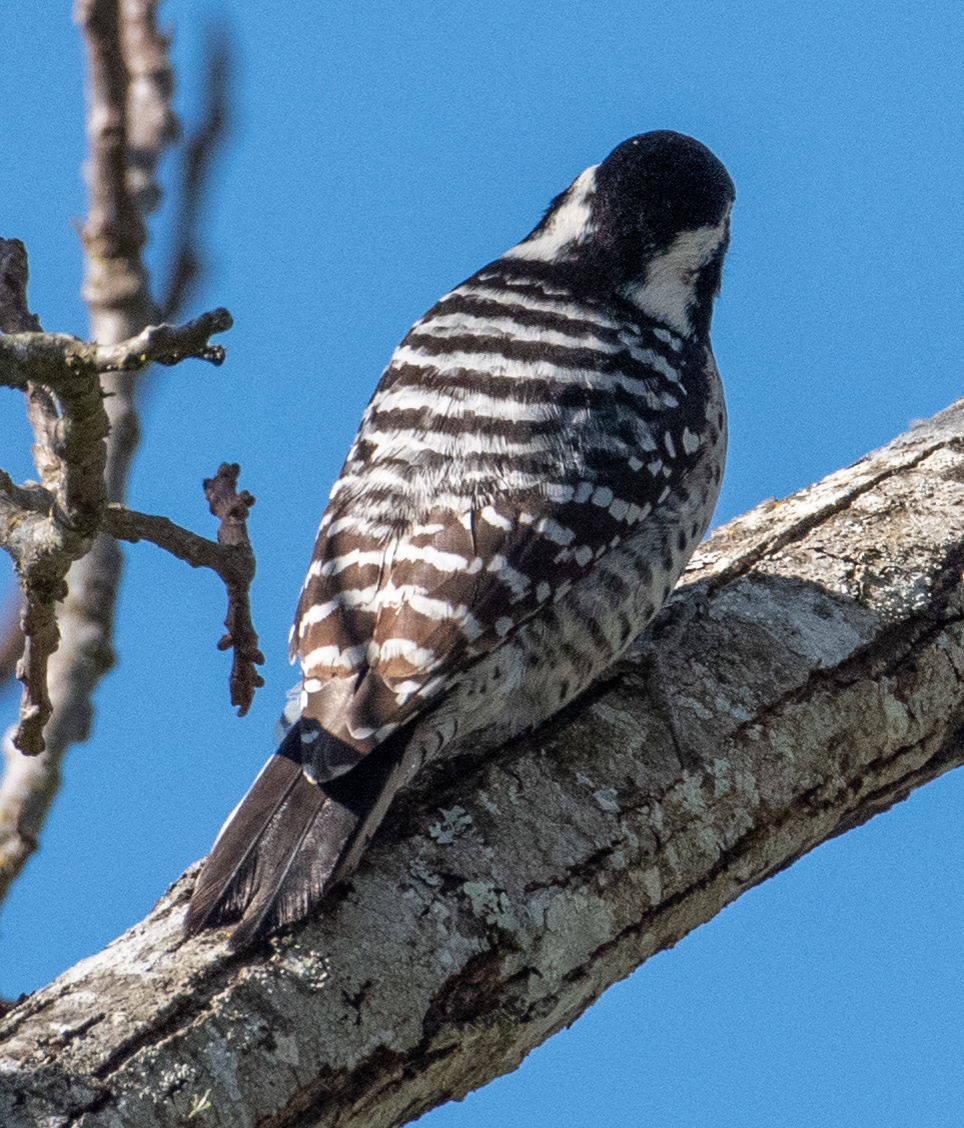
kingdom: Animalia
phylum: Chordata
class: Aves
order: Piciformes
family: Picidae
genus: Dryobates
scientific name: Dryobates nuttallii
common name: Nuttall's woodpecker
